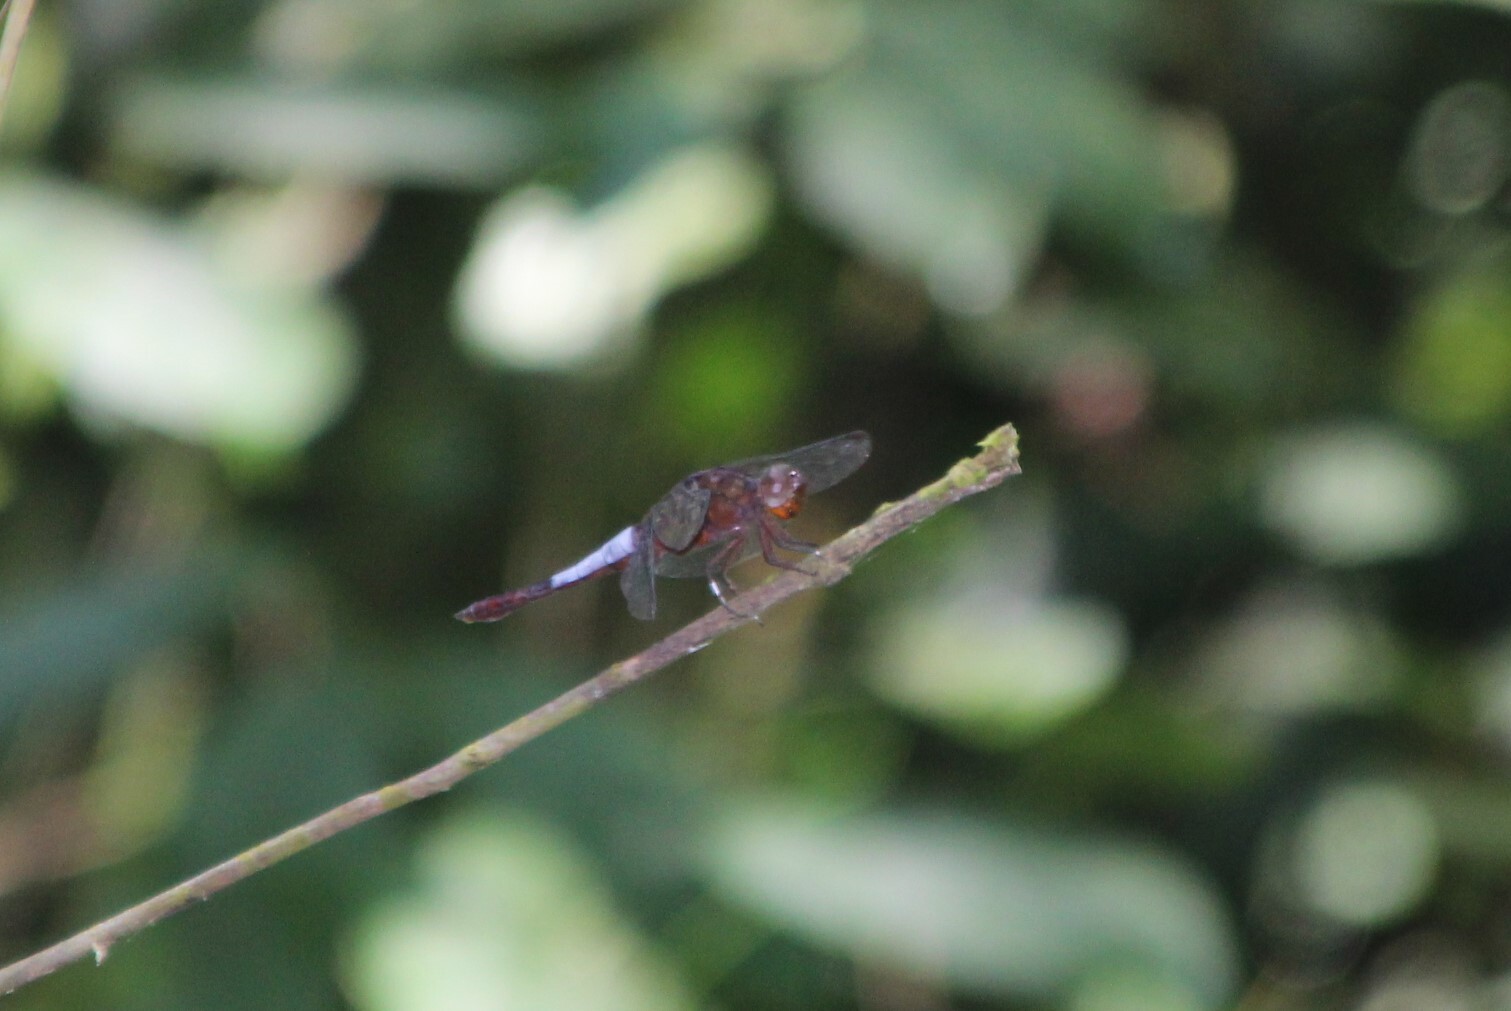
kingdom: Animalia
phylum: Arthropoda
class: Insecta
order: Odonata
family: Libellulidae
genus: Hadrothemis
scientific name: Hadrothemis coacta
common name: Robust jungleskimmer
